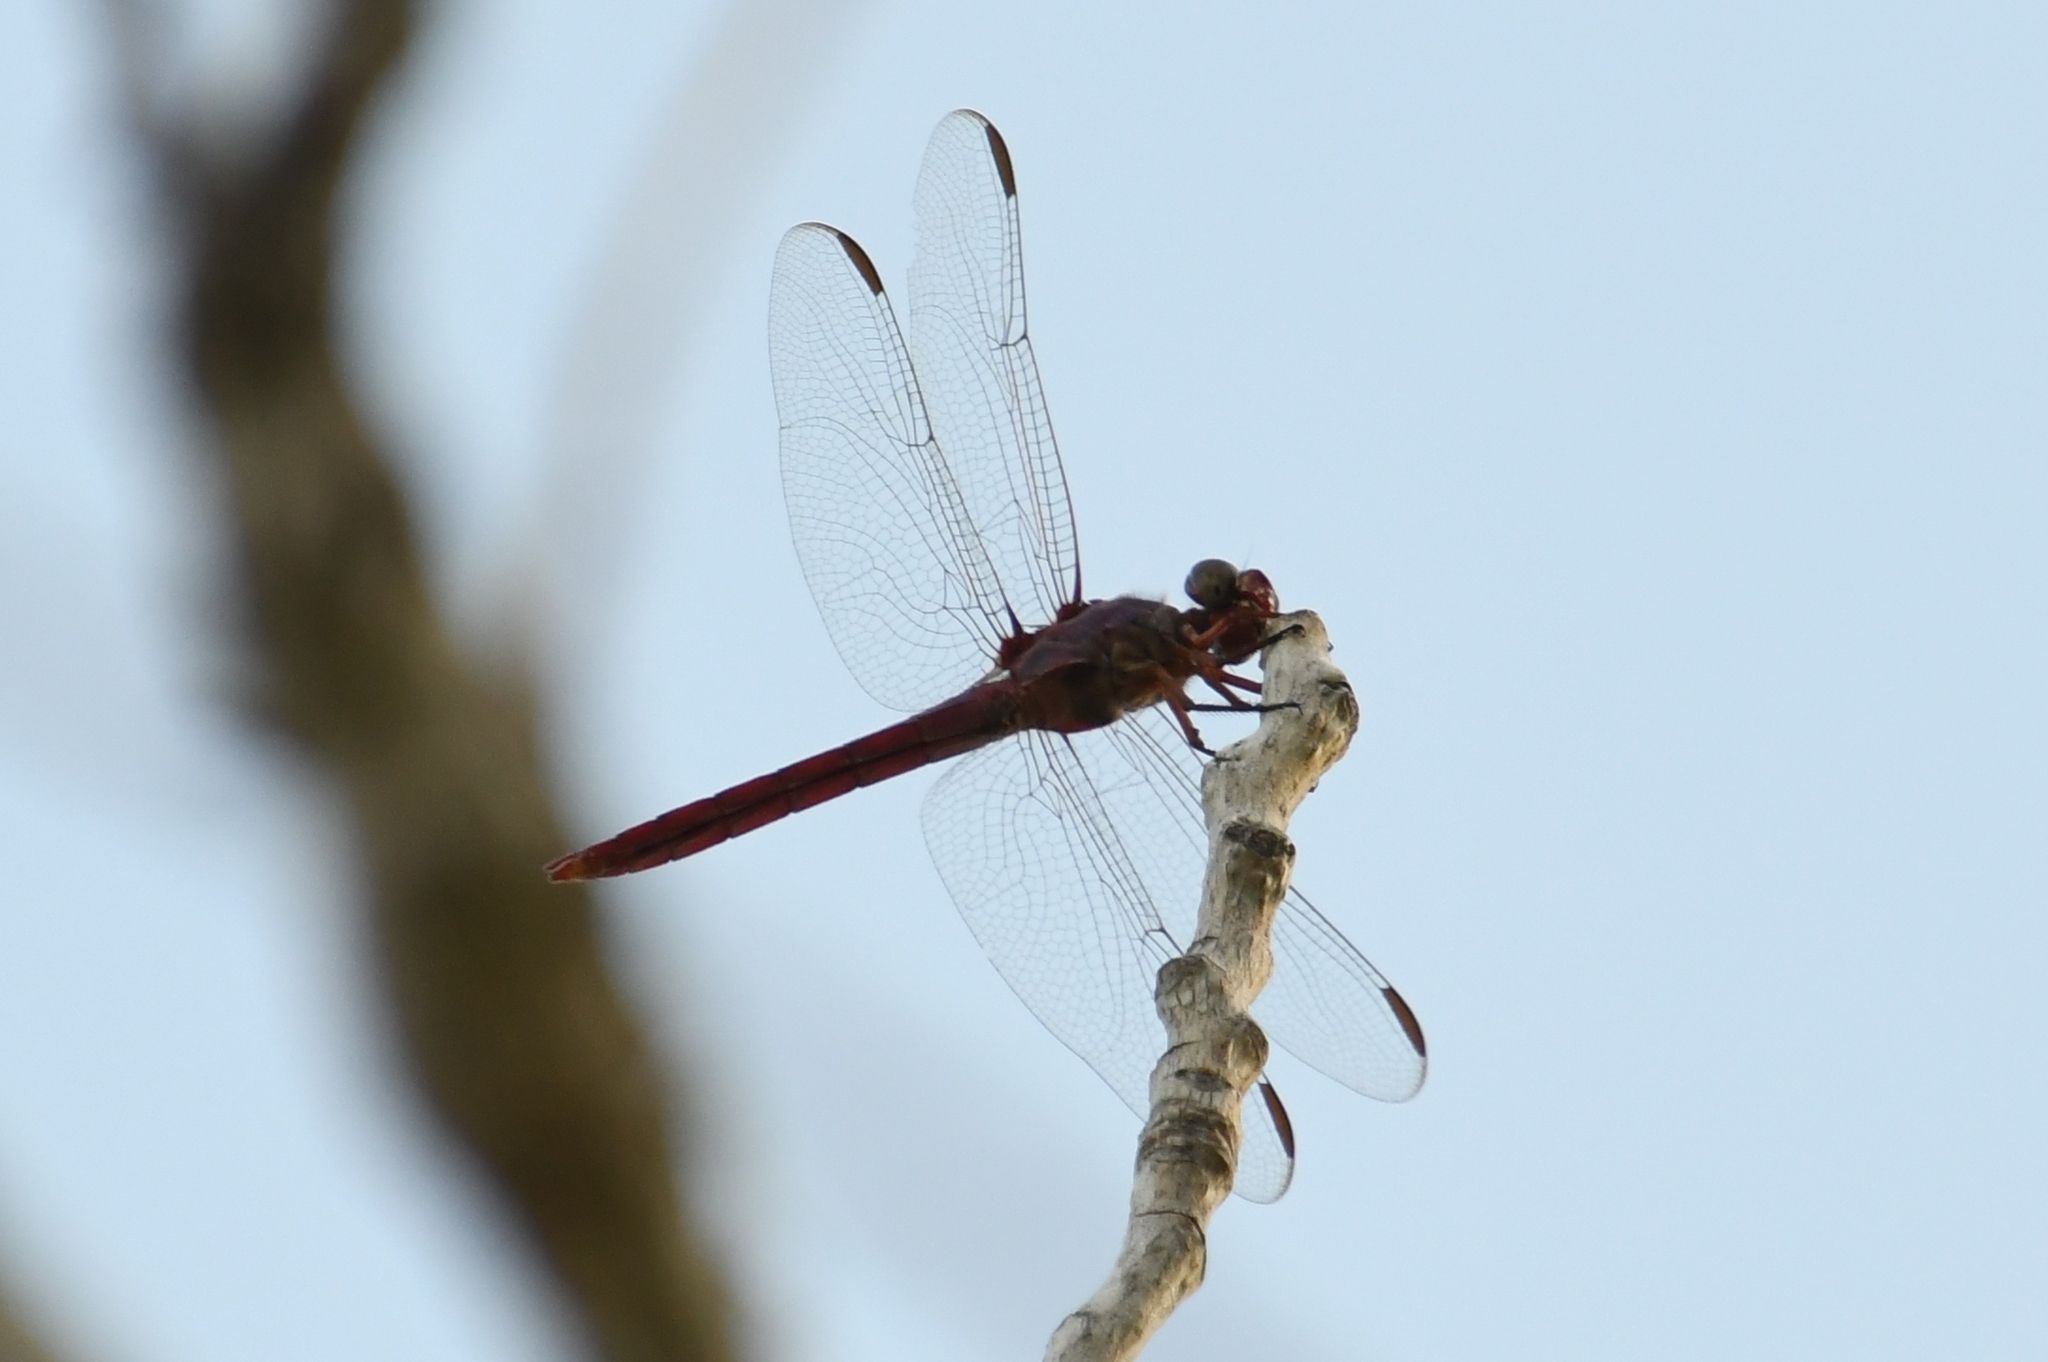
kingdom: Animalia
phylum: Arthropoda
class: Insecta
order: Odonata
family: Libellulidae
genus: Orthemis
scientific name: Orthemis ferruginea
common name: Roseate skimmer
